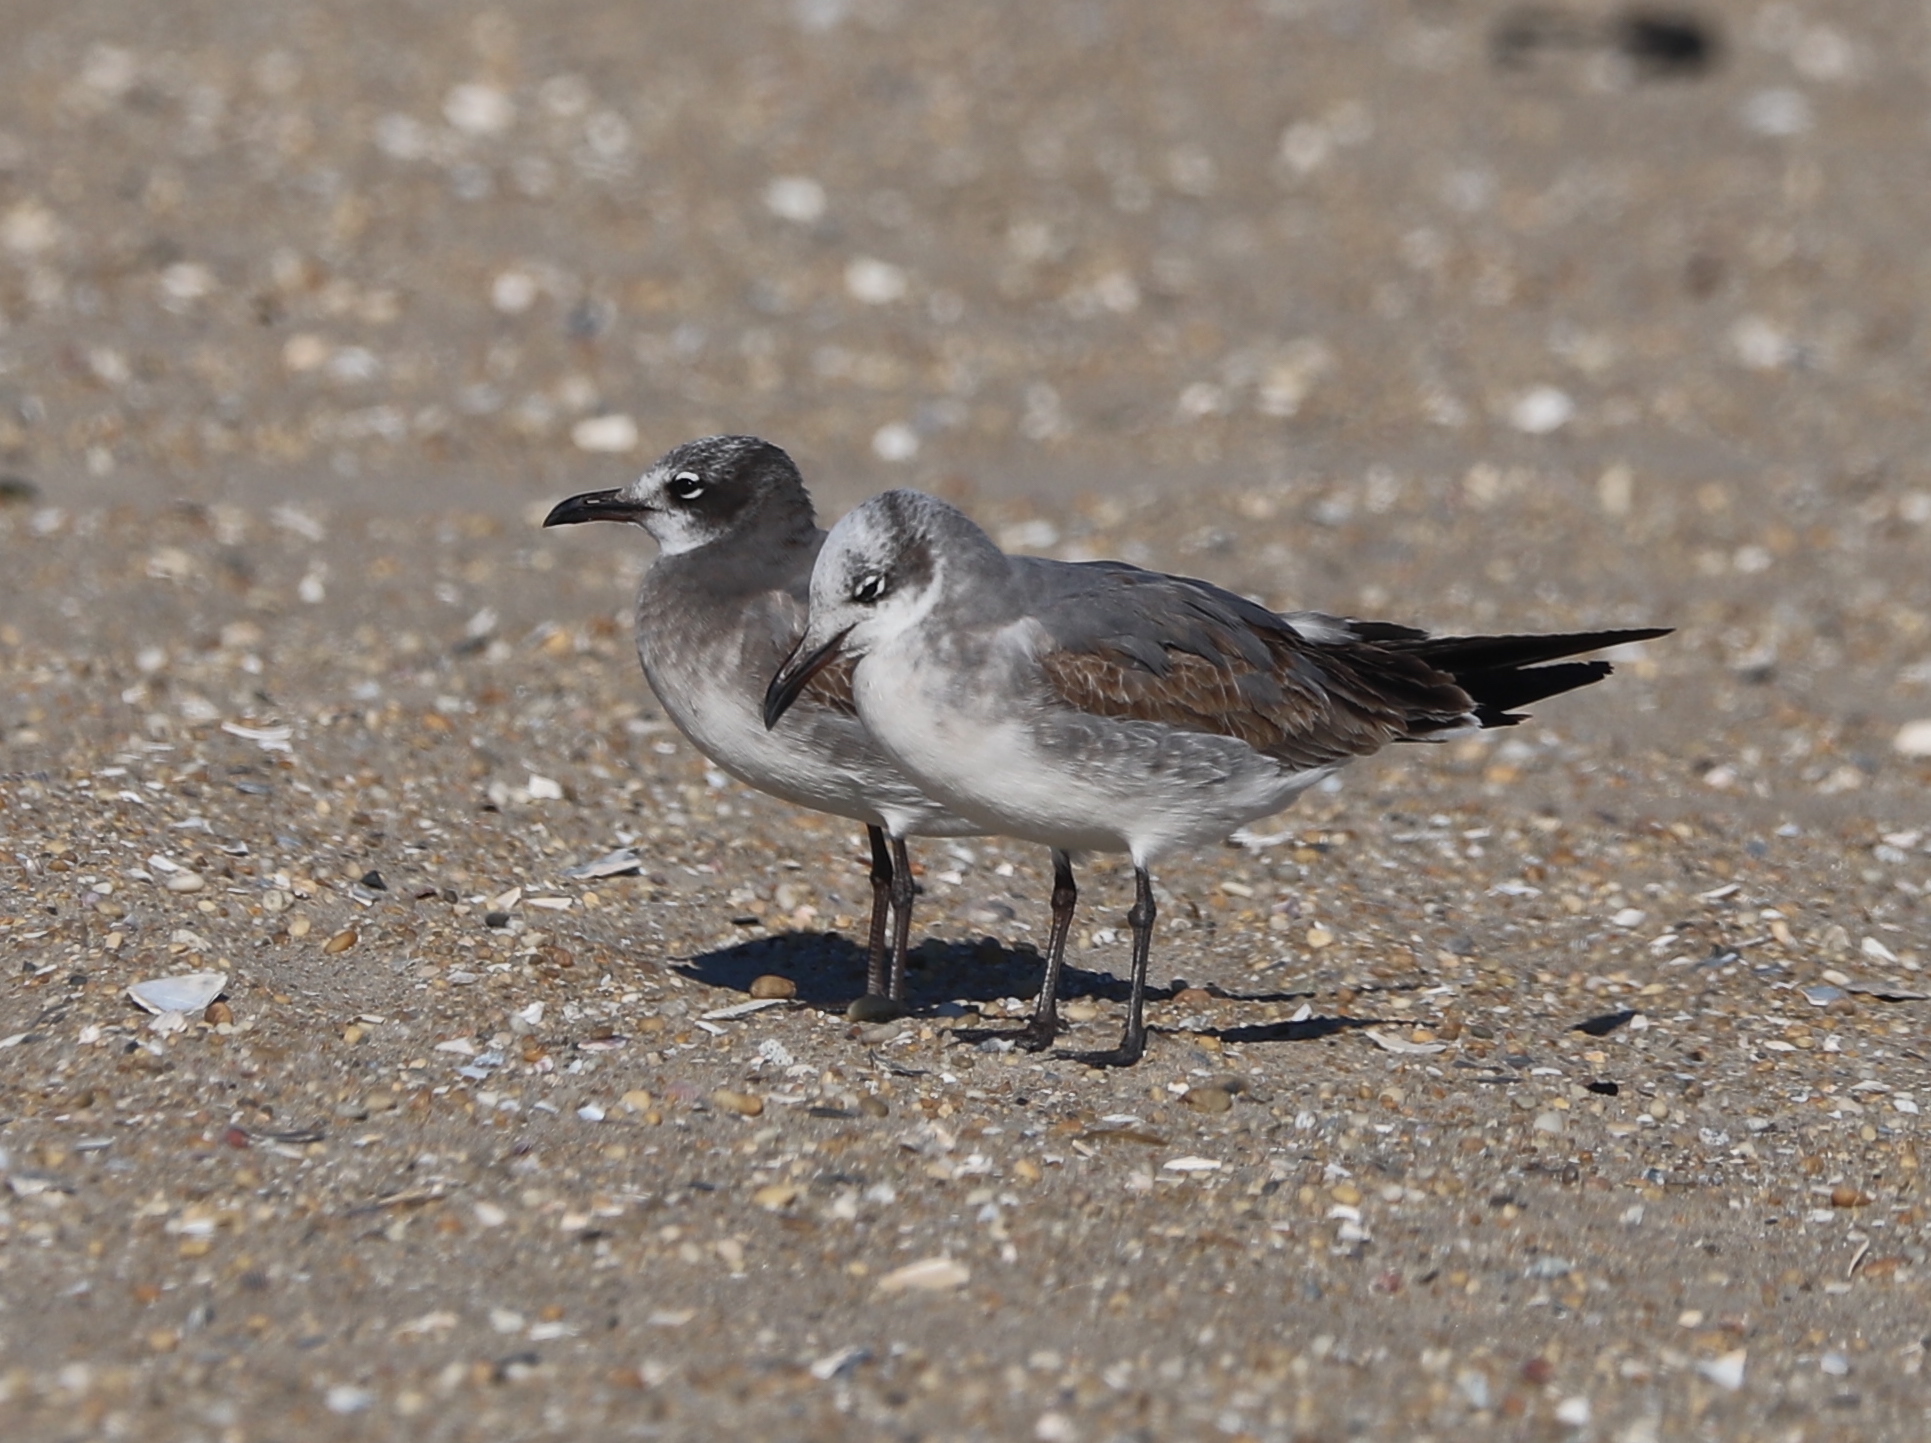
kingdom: Animalia
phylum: Chordata
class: Aves
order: Charadriiformes
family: Laridae
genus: Leucophaeus
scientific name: Leucophaeus atricilla
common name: Laughing gull
